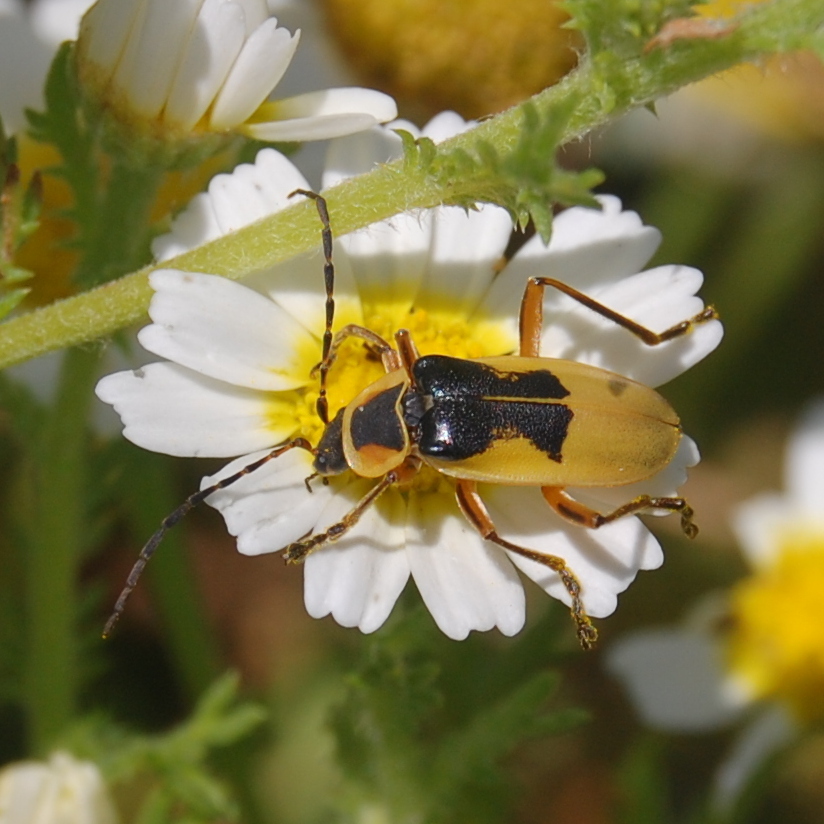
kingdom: Animalia
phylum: Arthropoda
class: Insecta
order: Coleoptera
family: Cantharidae
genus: Chauliognathus
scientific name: Chauliognathus
